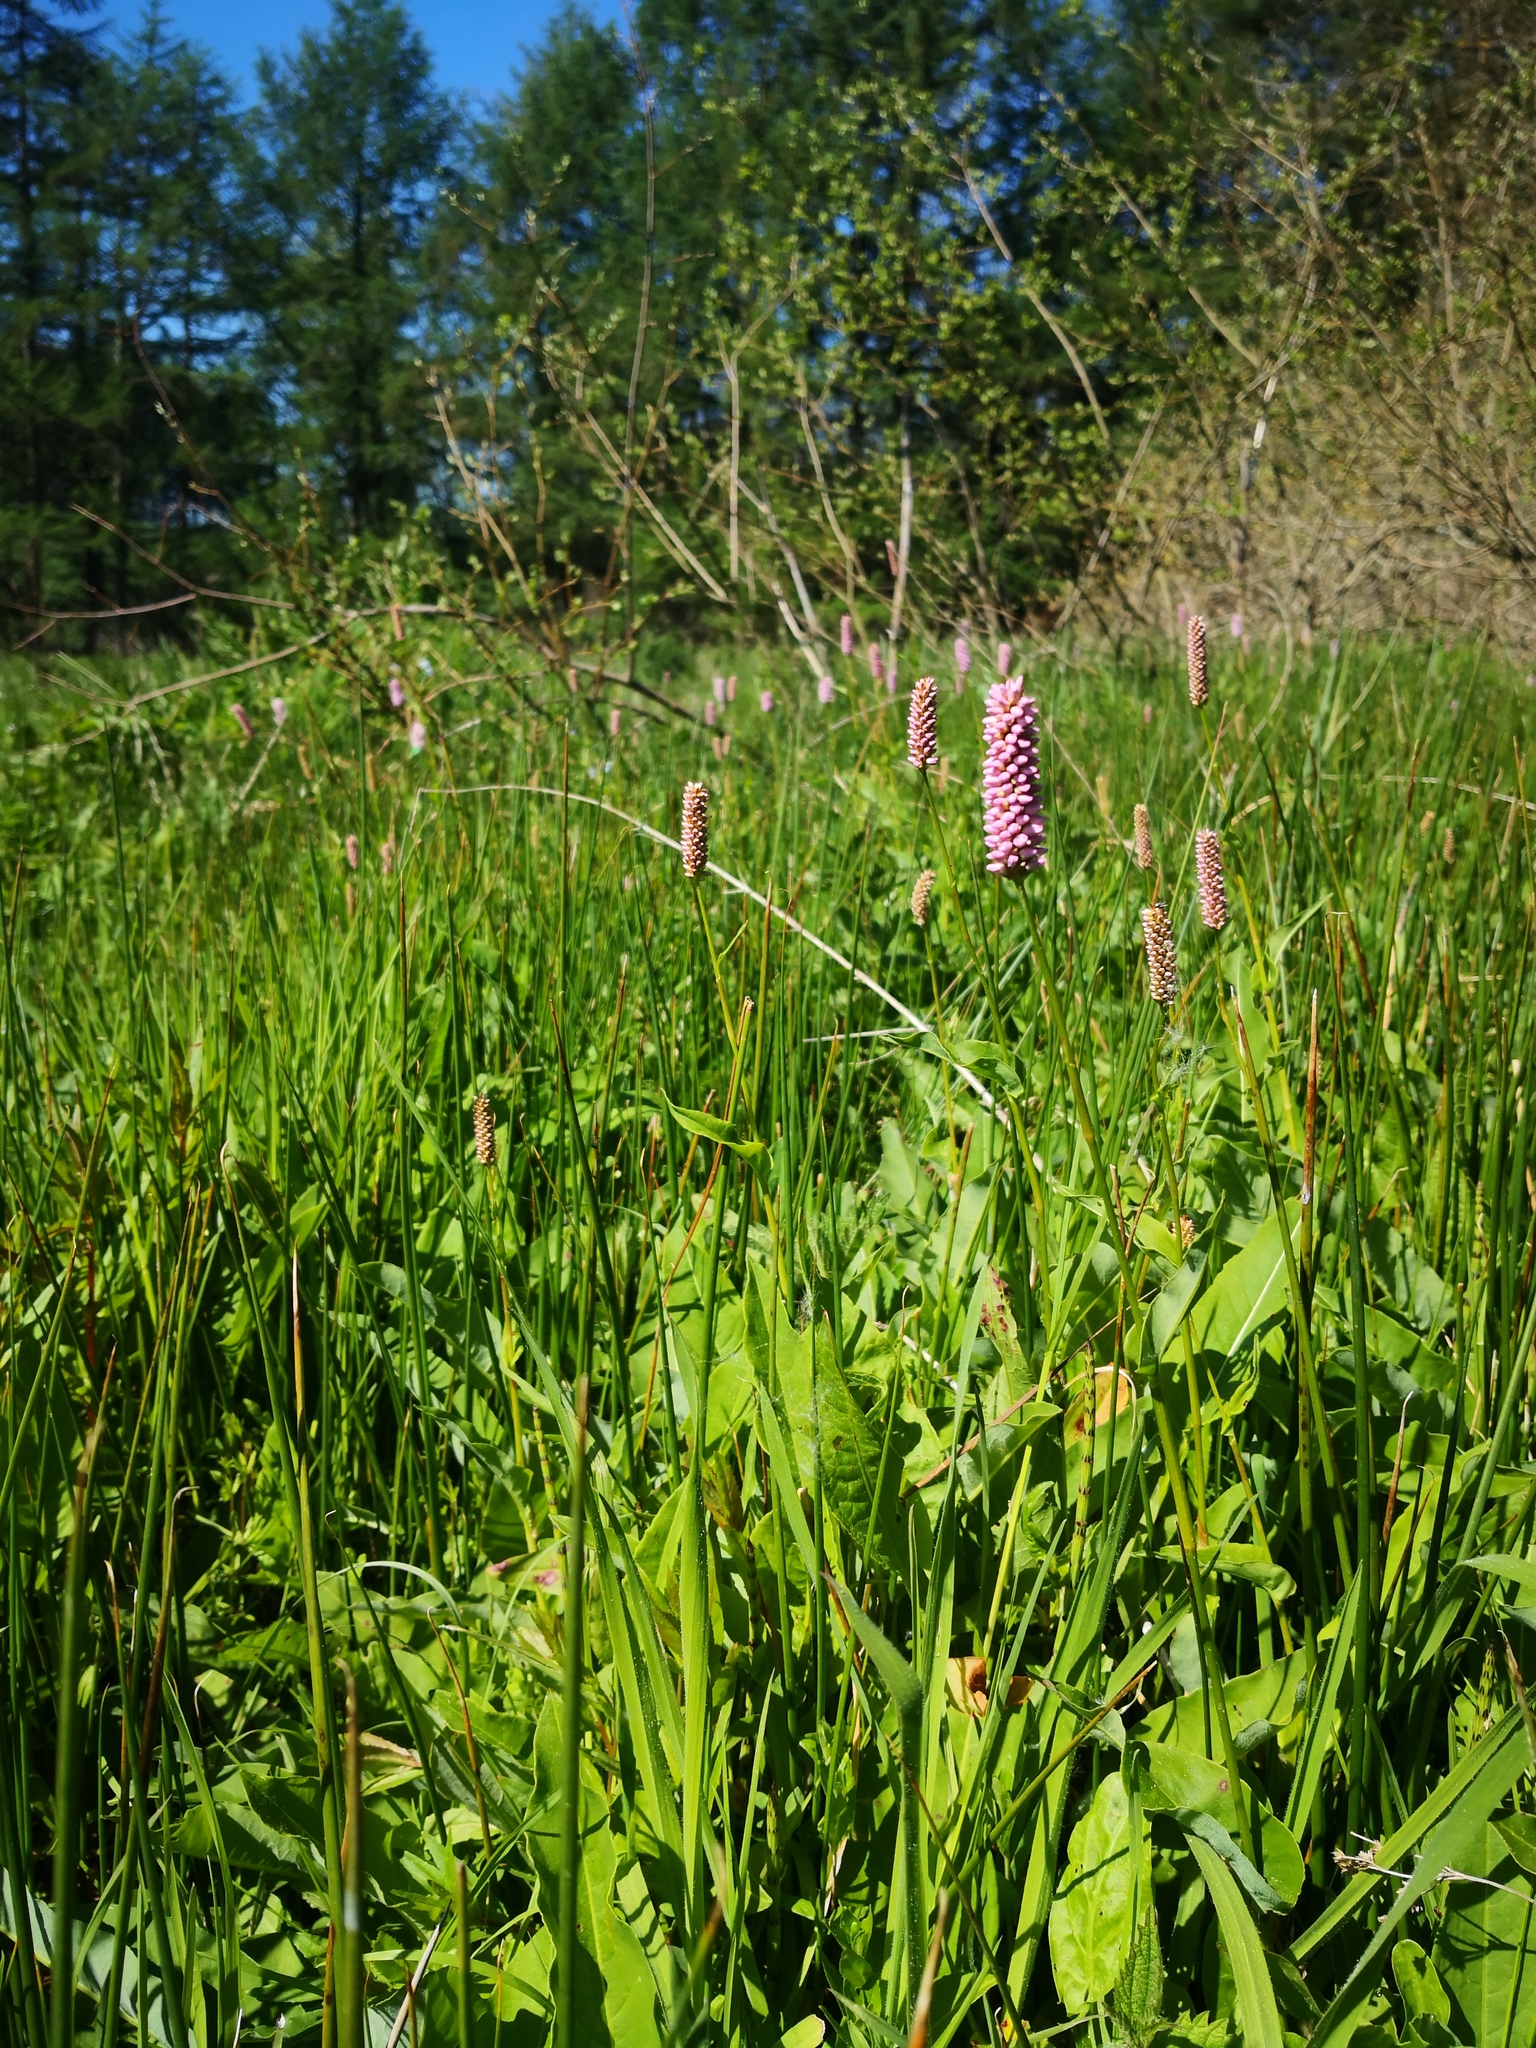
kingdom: Plantae
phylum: Tracheophyta
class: Magnoliopsida
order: Caryophyllales
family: Polygonaceae
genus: Bistorta
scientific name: Bistorta officinalis
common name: Common bistort
